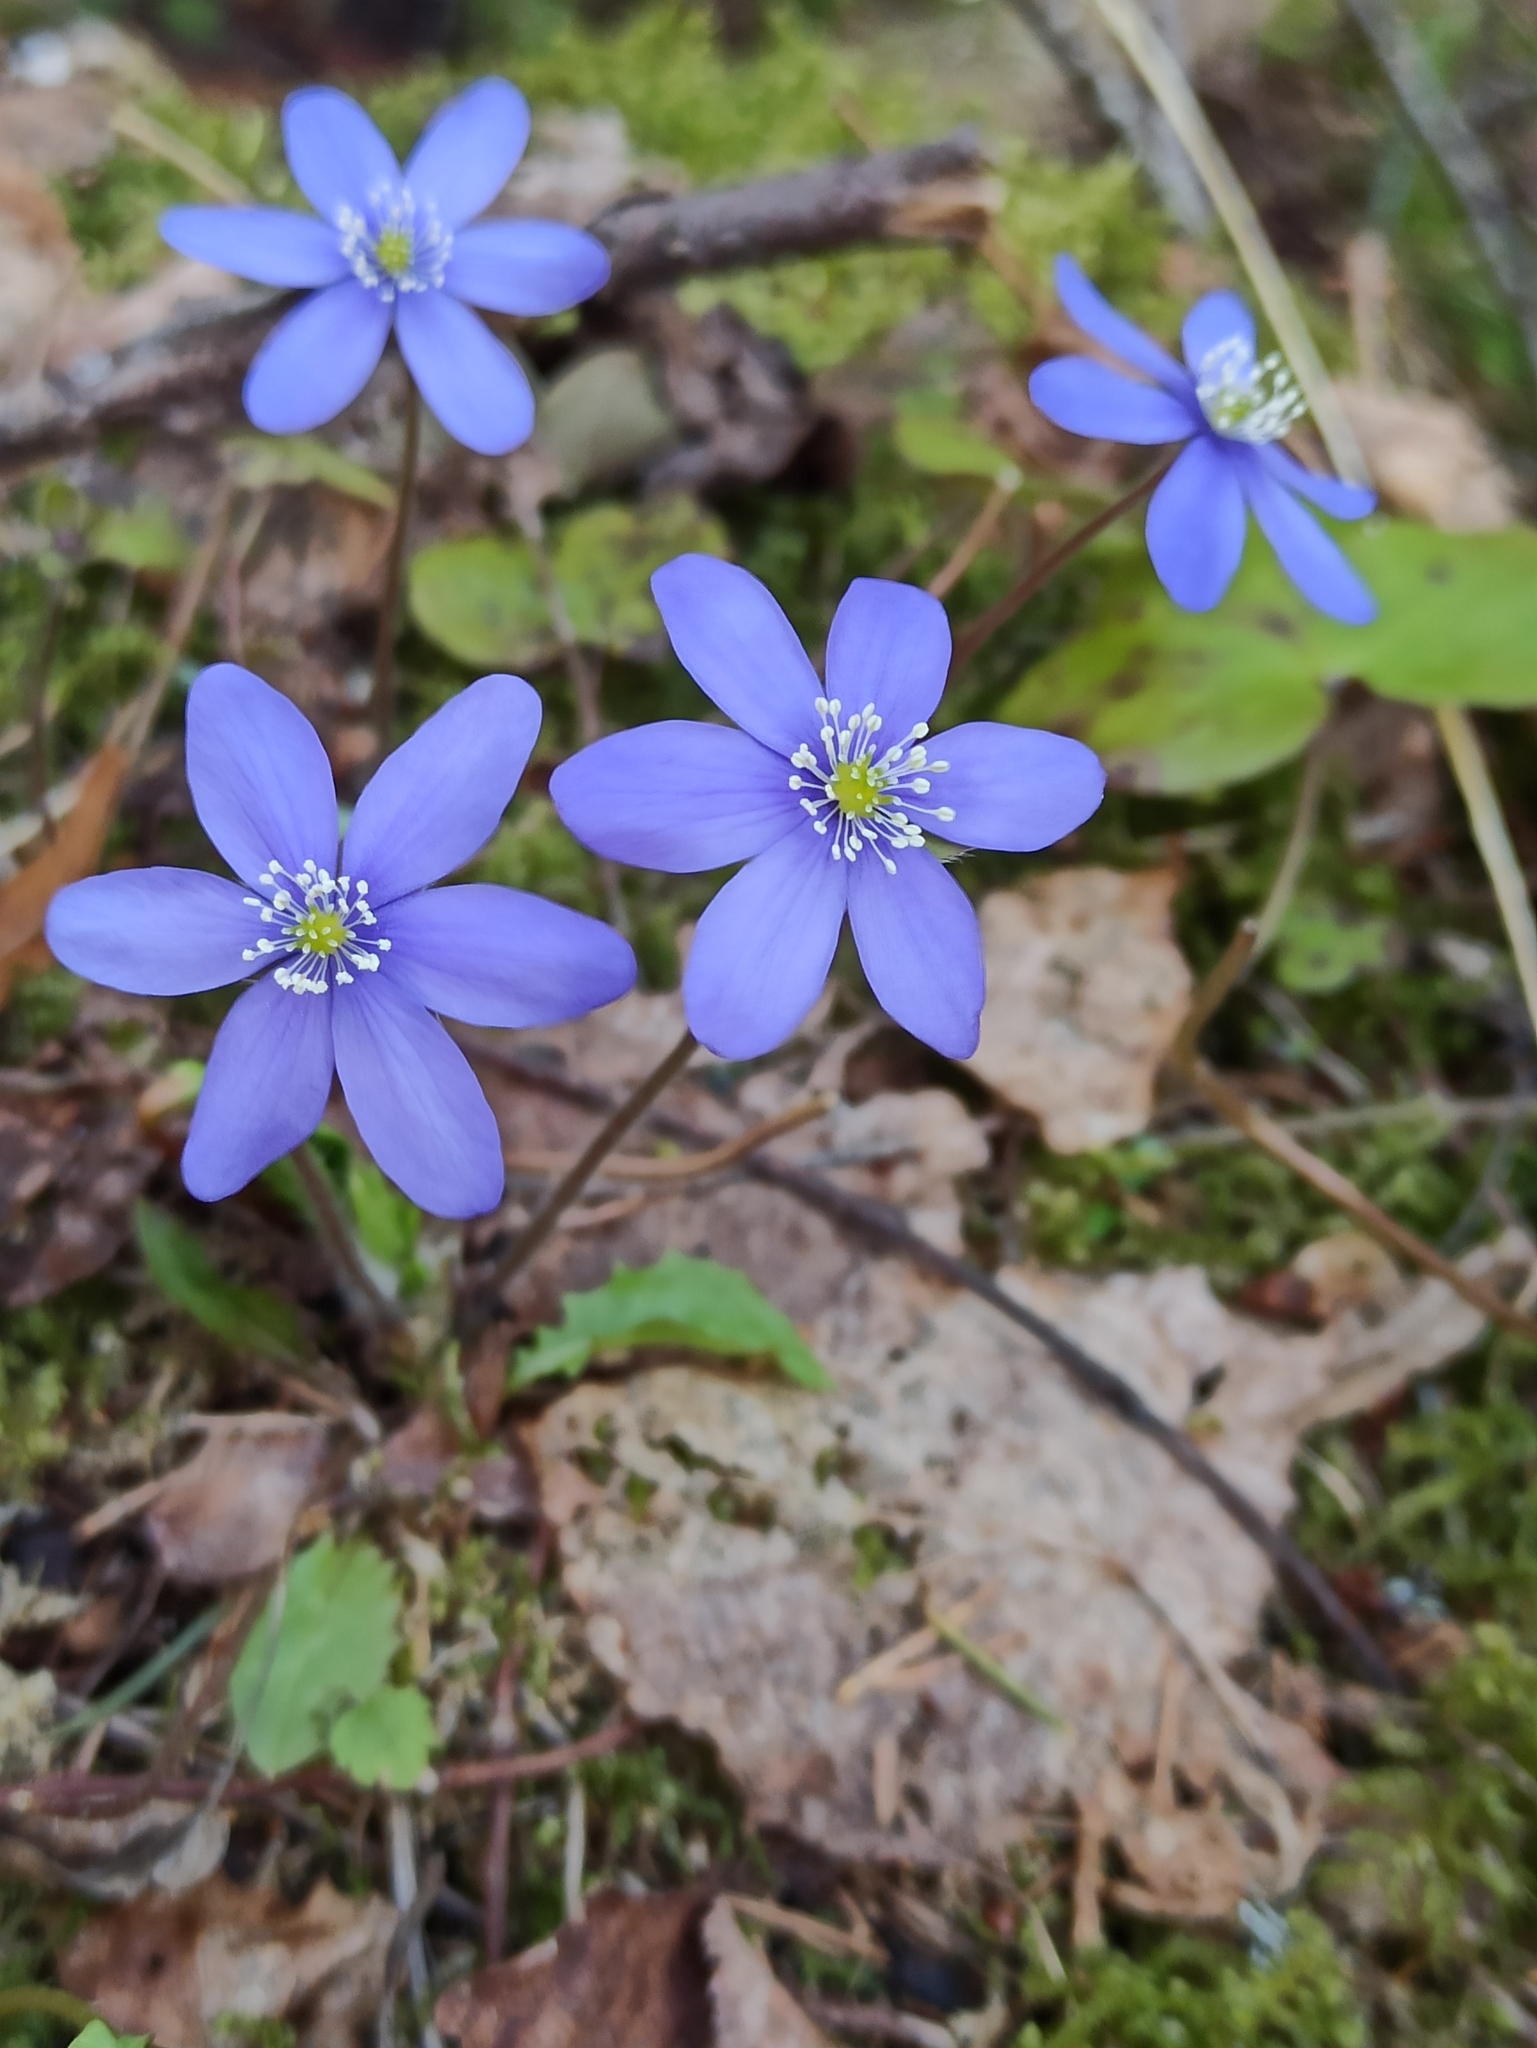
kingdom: Plantae
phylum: Tracheophyta
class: Magnoliopsida
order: Ranunculales
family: Ranunculaceae
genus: Hepatica
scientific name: Hepatica nobilis
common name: Liverleaf
